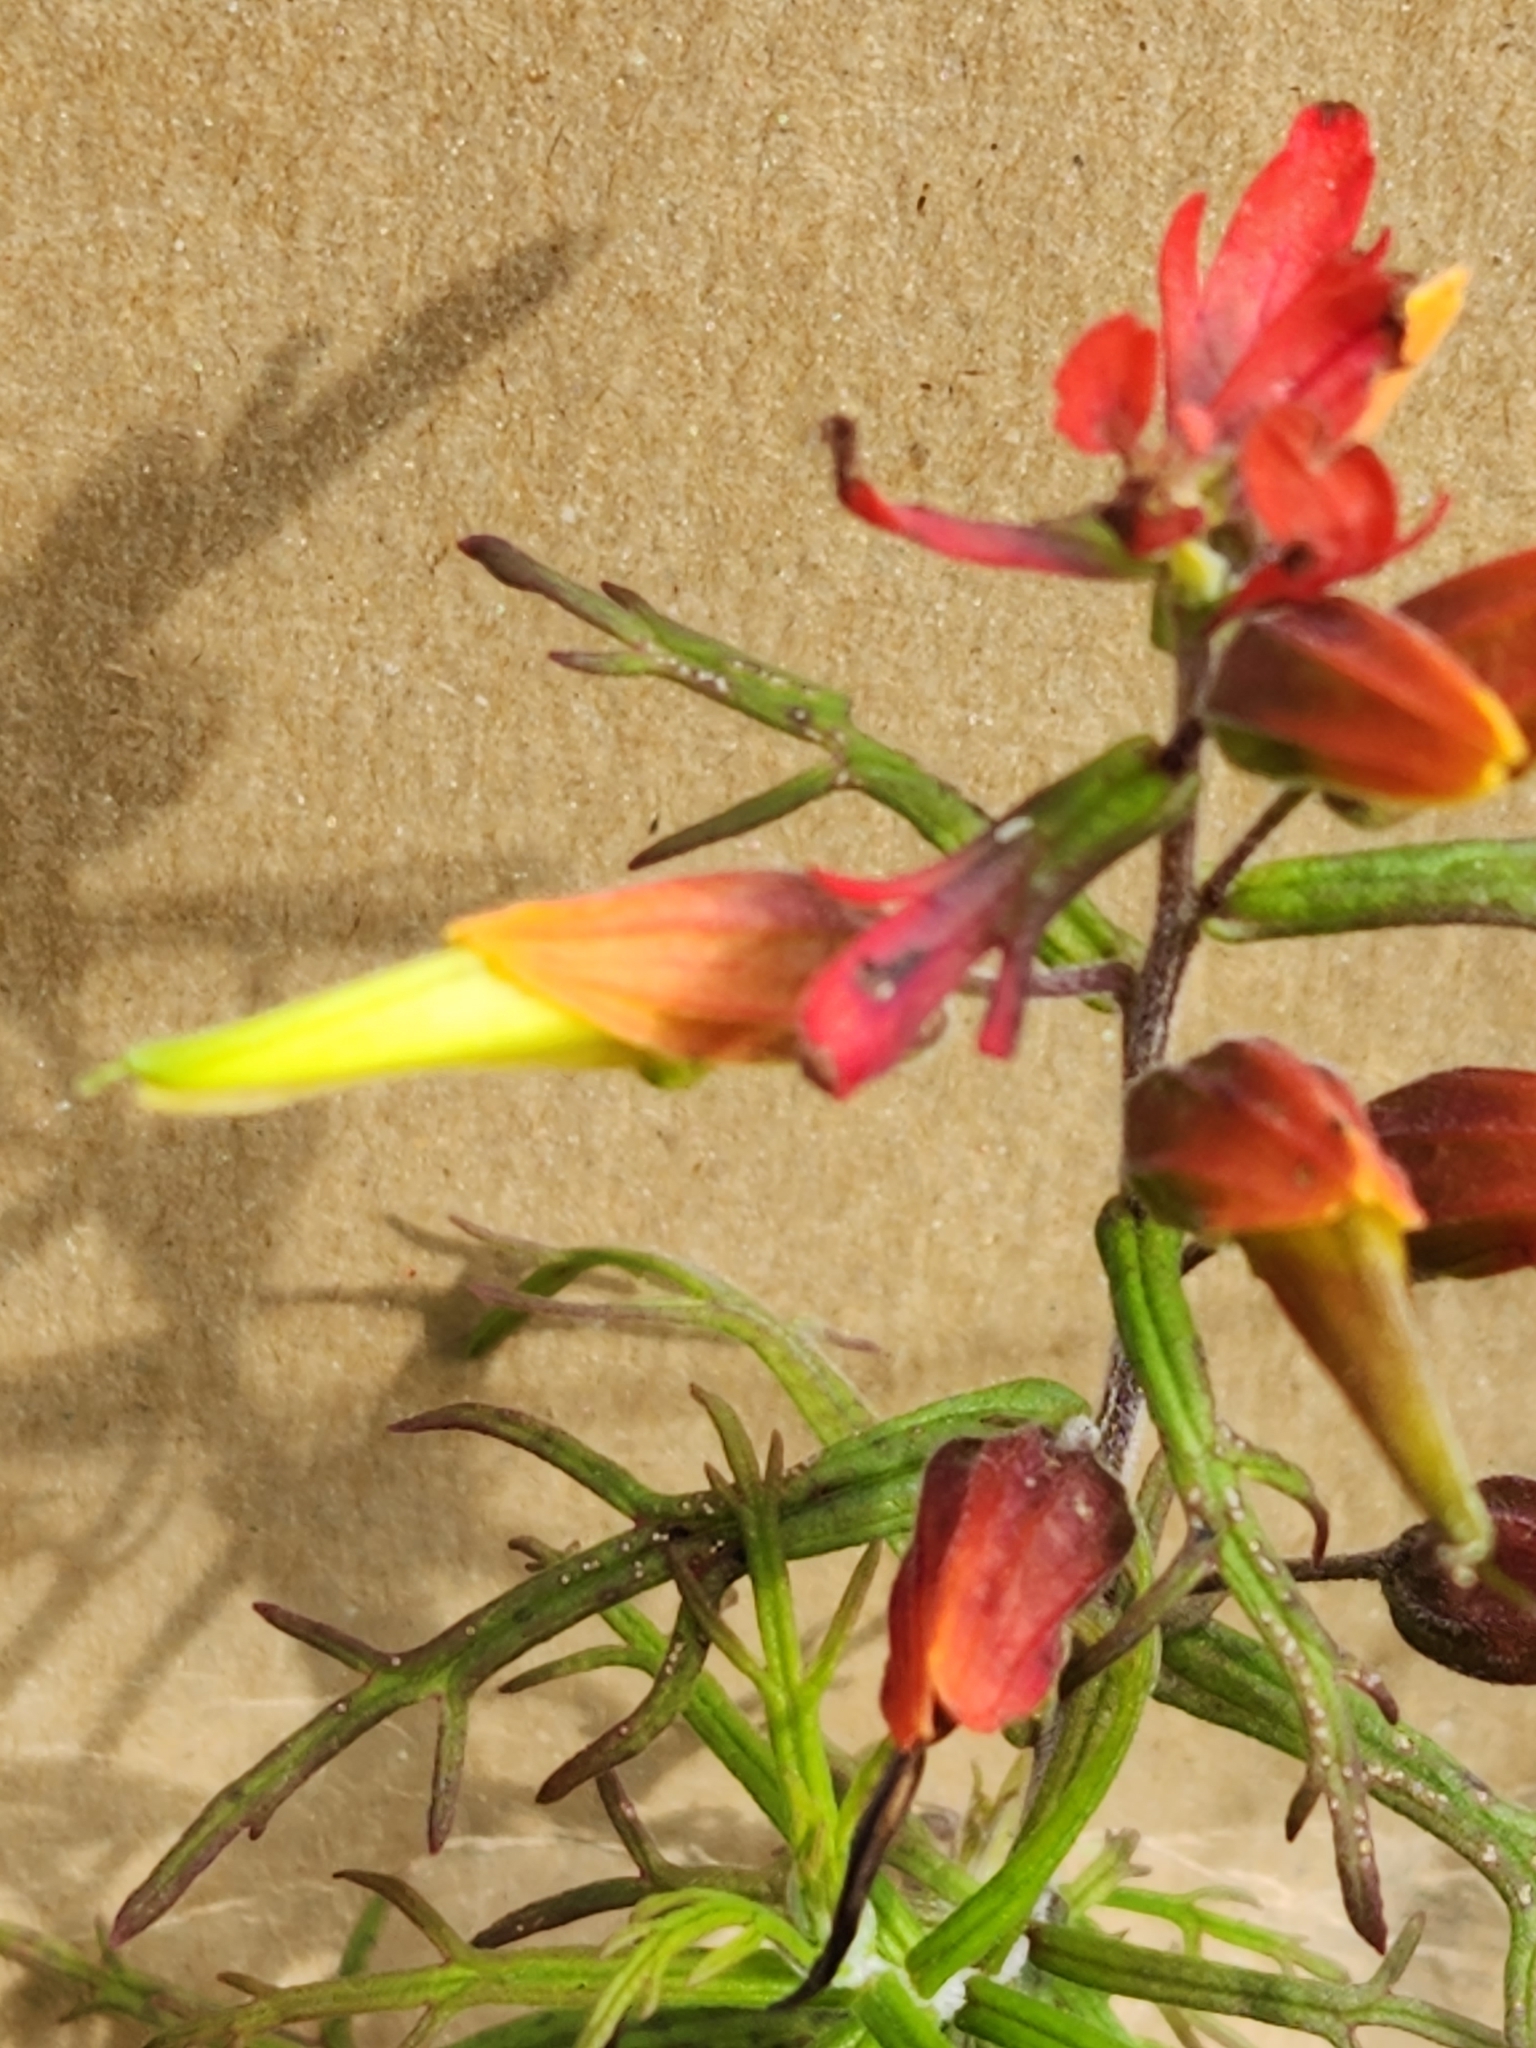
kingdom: Plantae
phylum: Tracheophyta
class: Magnoliopsida
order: Lamiales
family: Orobanchaceae
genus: Castilleja
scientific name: Castilleja fissifolia
